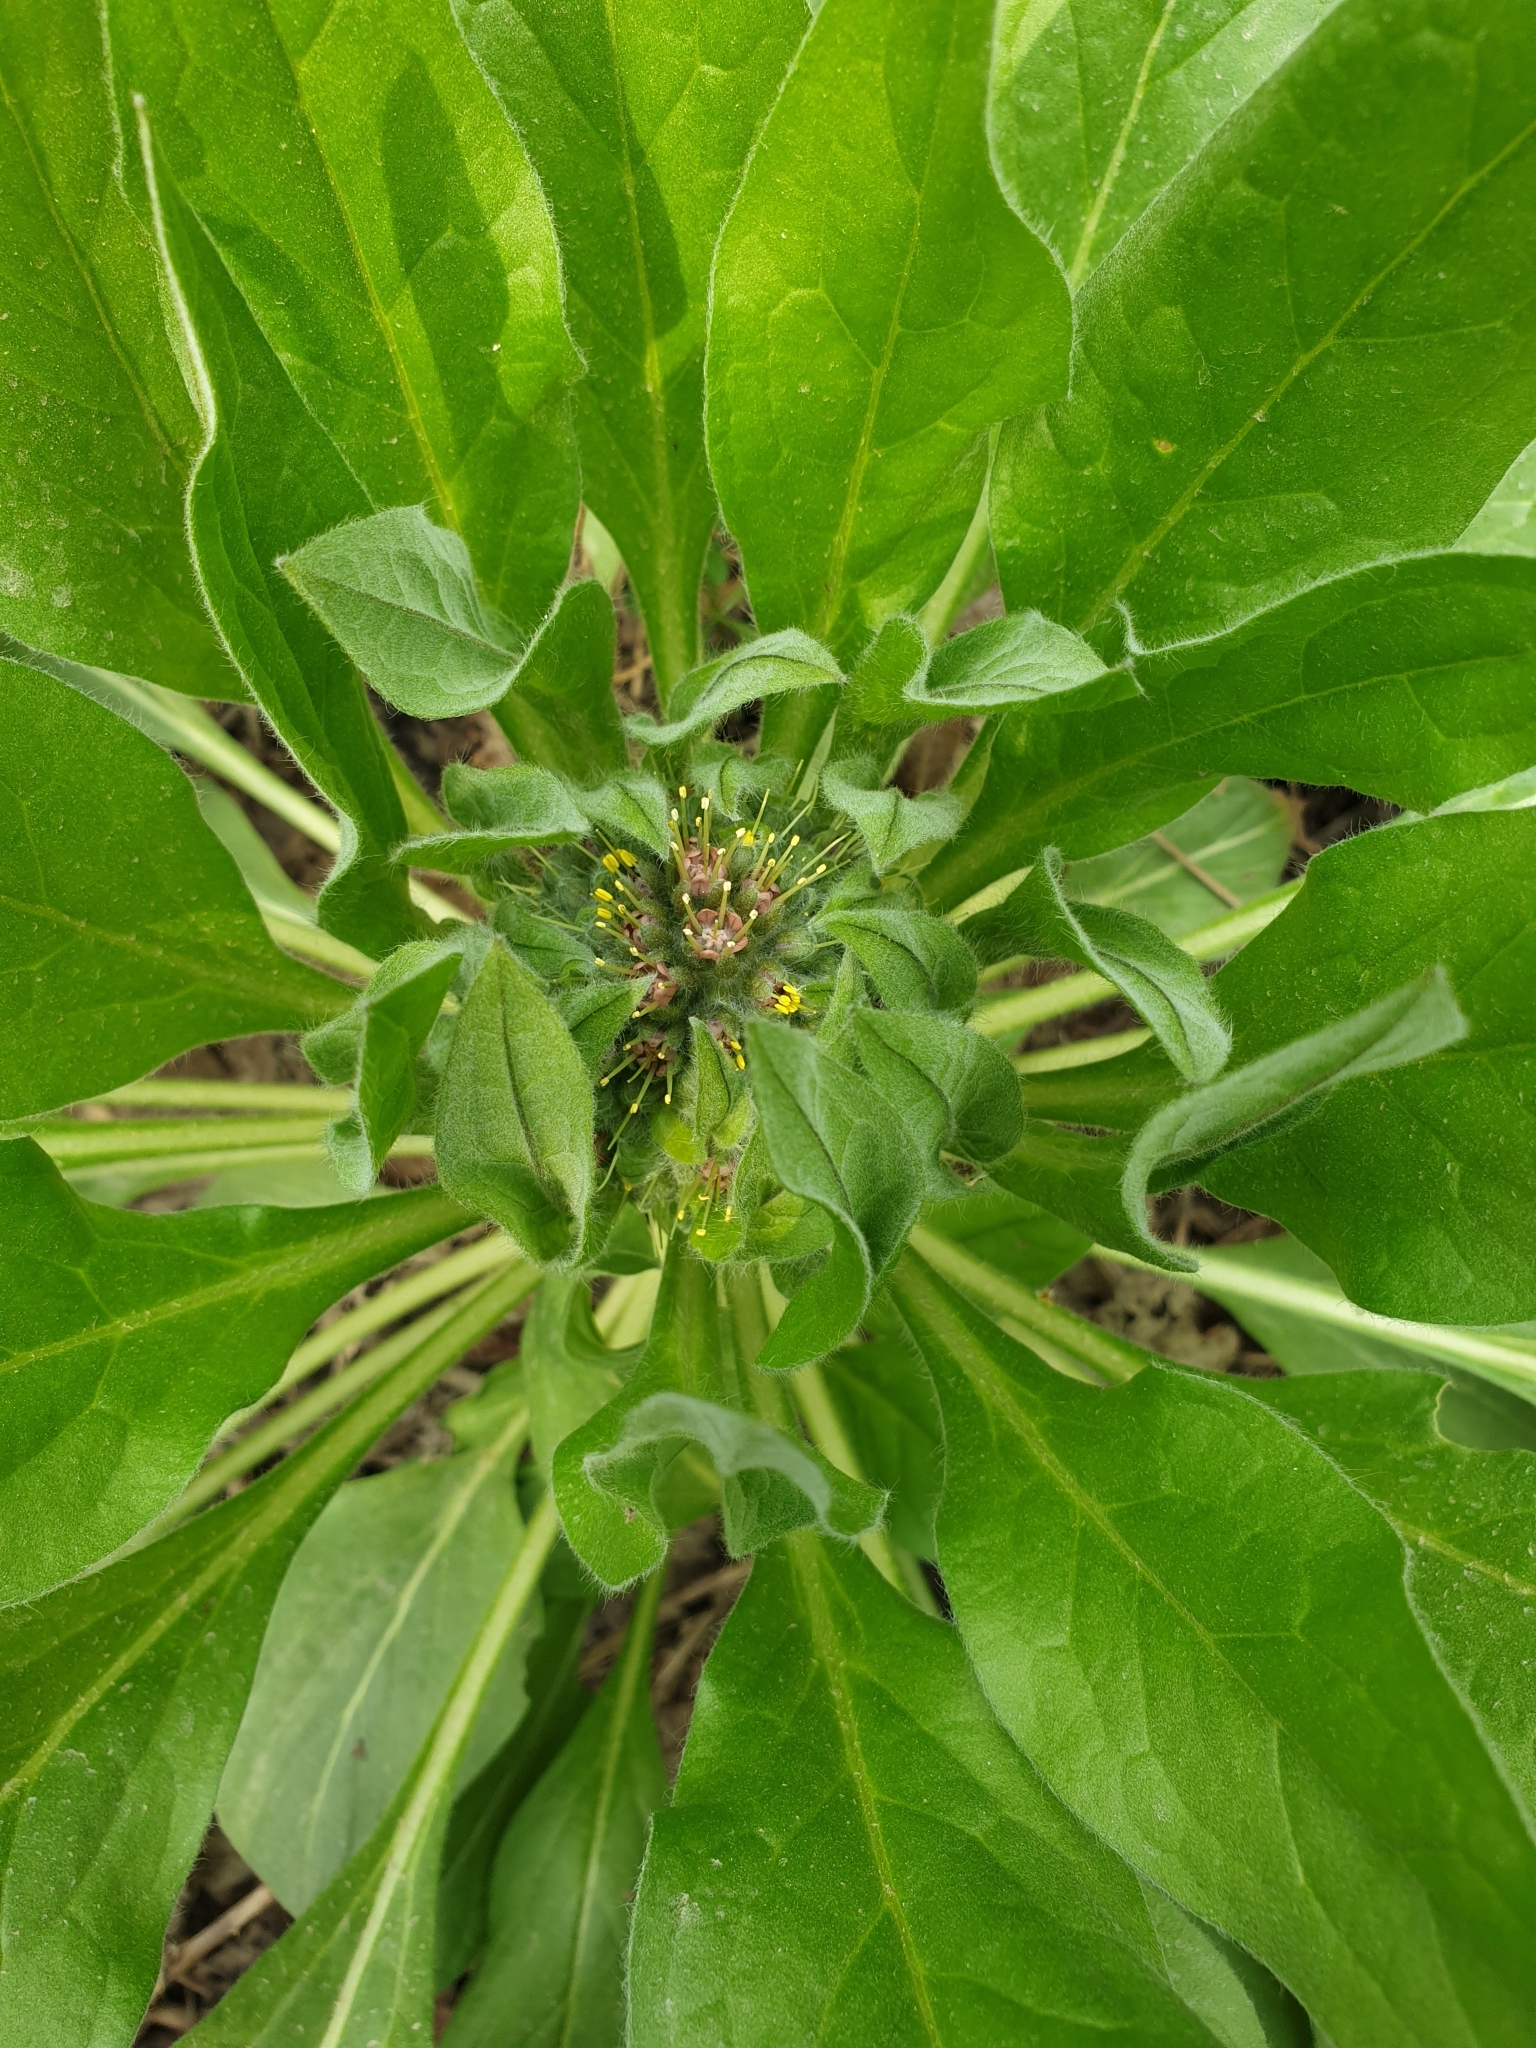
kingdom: Plantae
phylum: Tracheophyta
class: Magnoliopsida
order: Boraginales
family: Boraginaceae
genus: Solenanthus
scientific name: Solenanthus dubius
